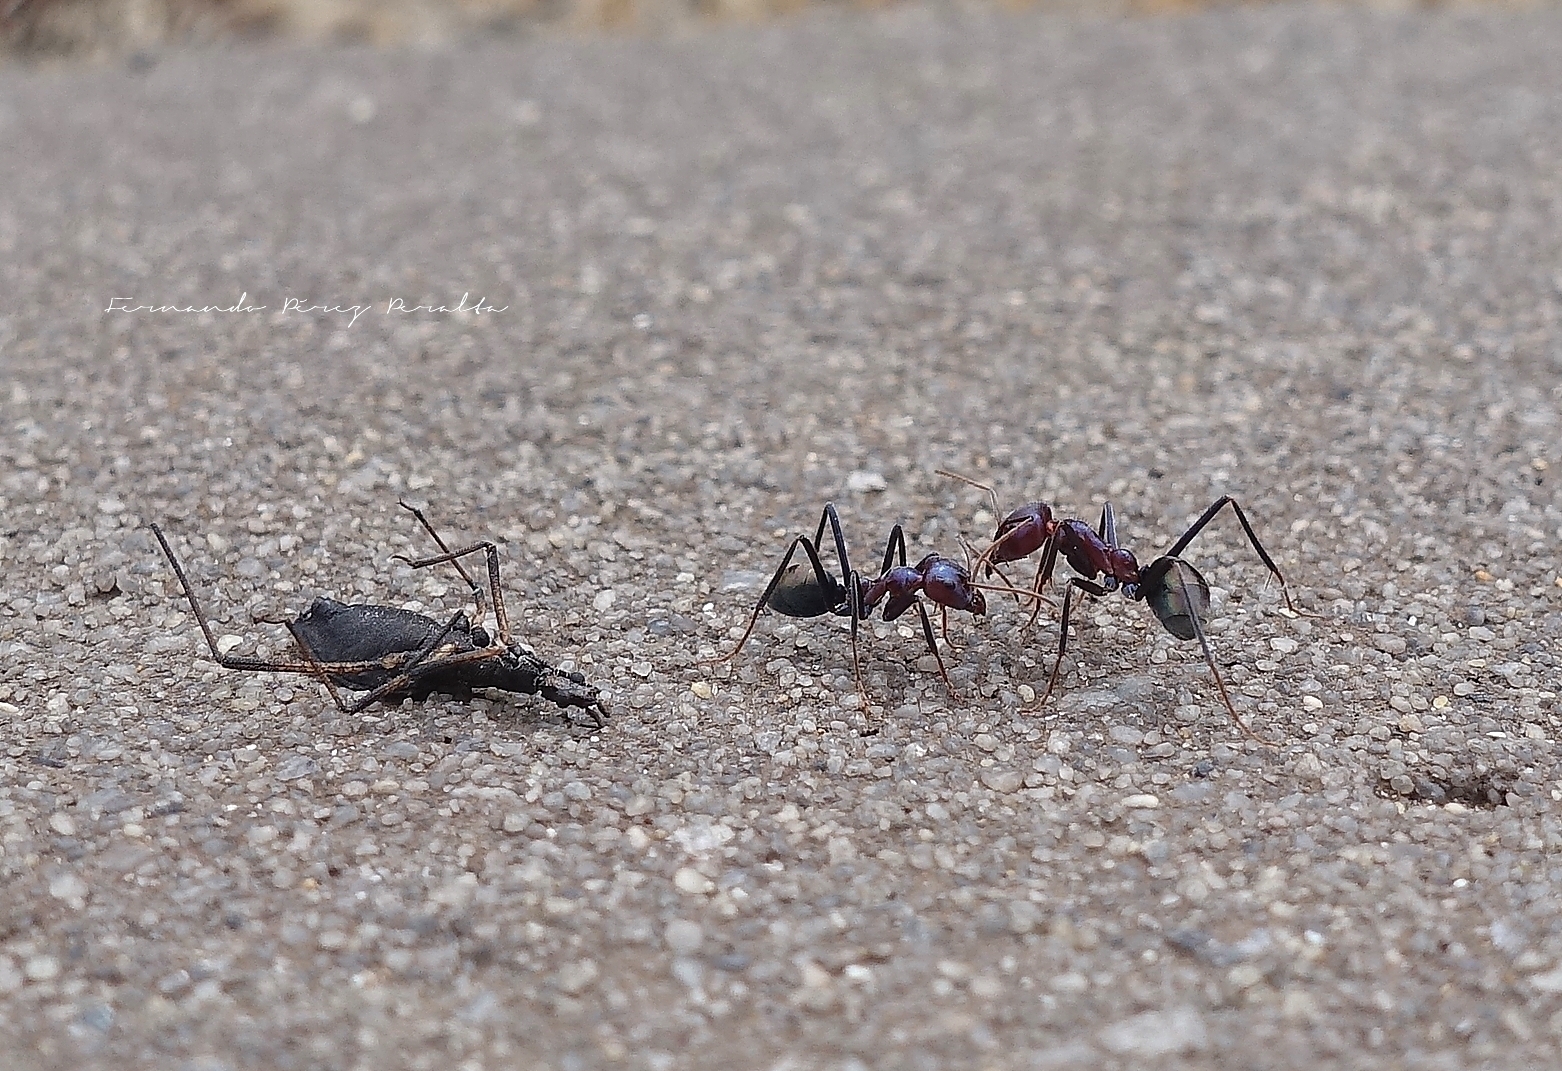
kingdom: Animalia
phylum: Arthropoda
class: Insecta
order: Hymenoptera
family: Formicidae
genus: Iridomyrmex
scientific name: Iridomyrmex purpureus
